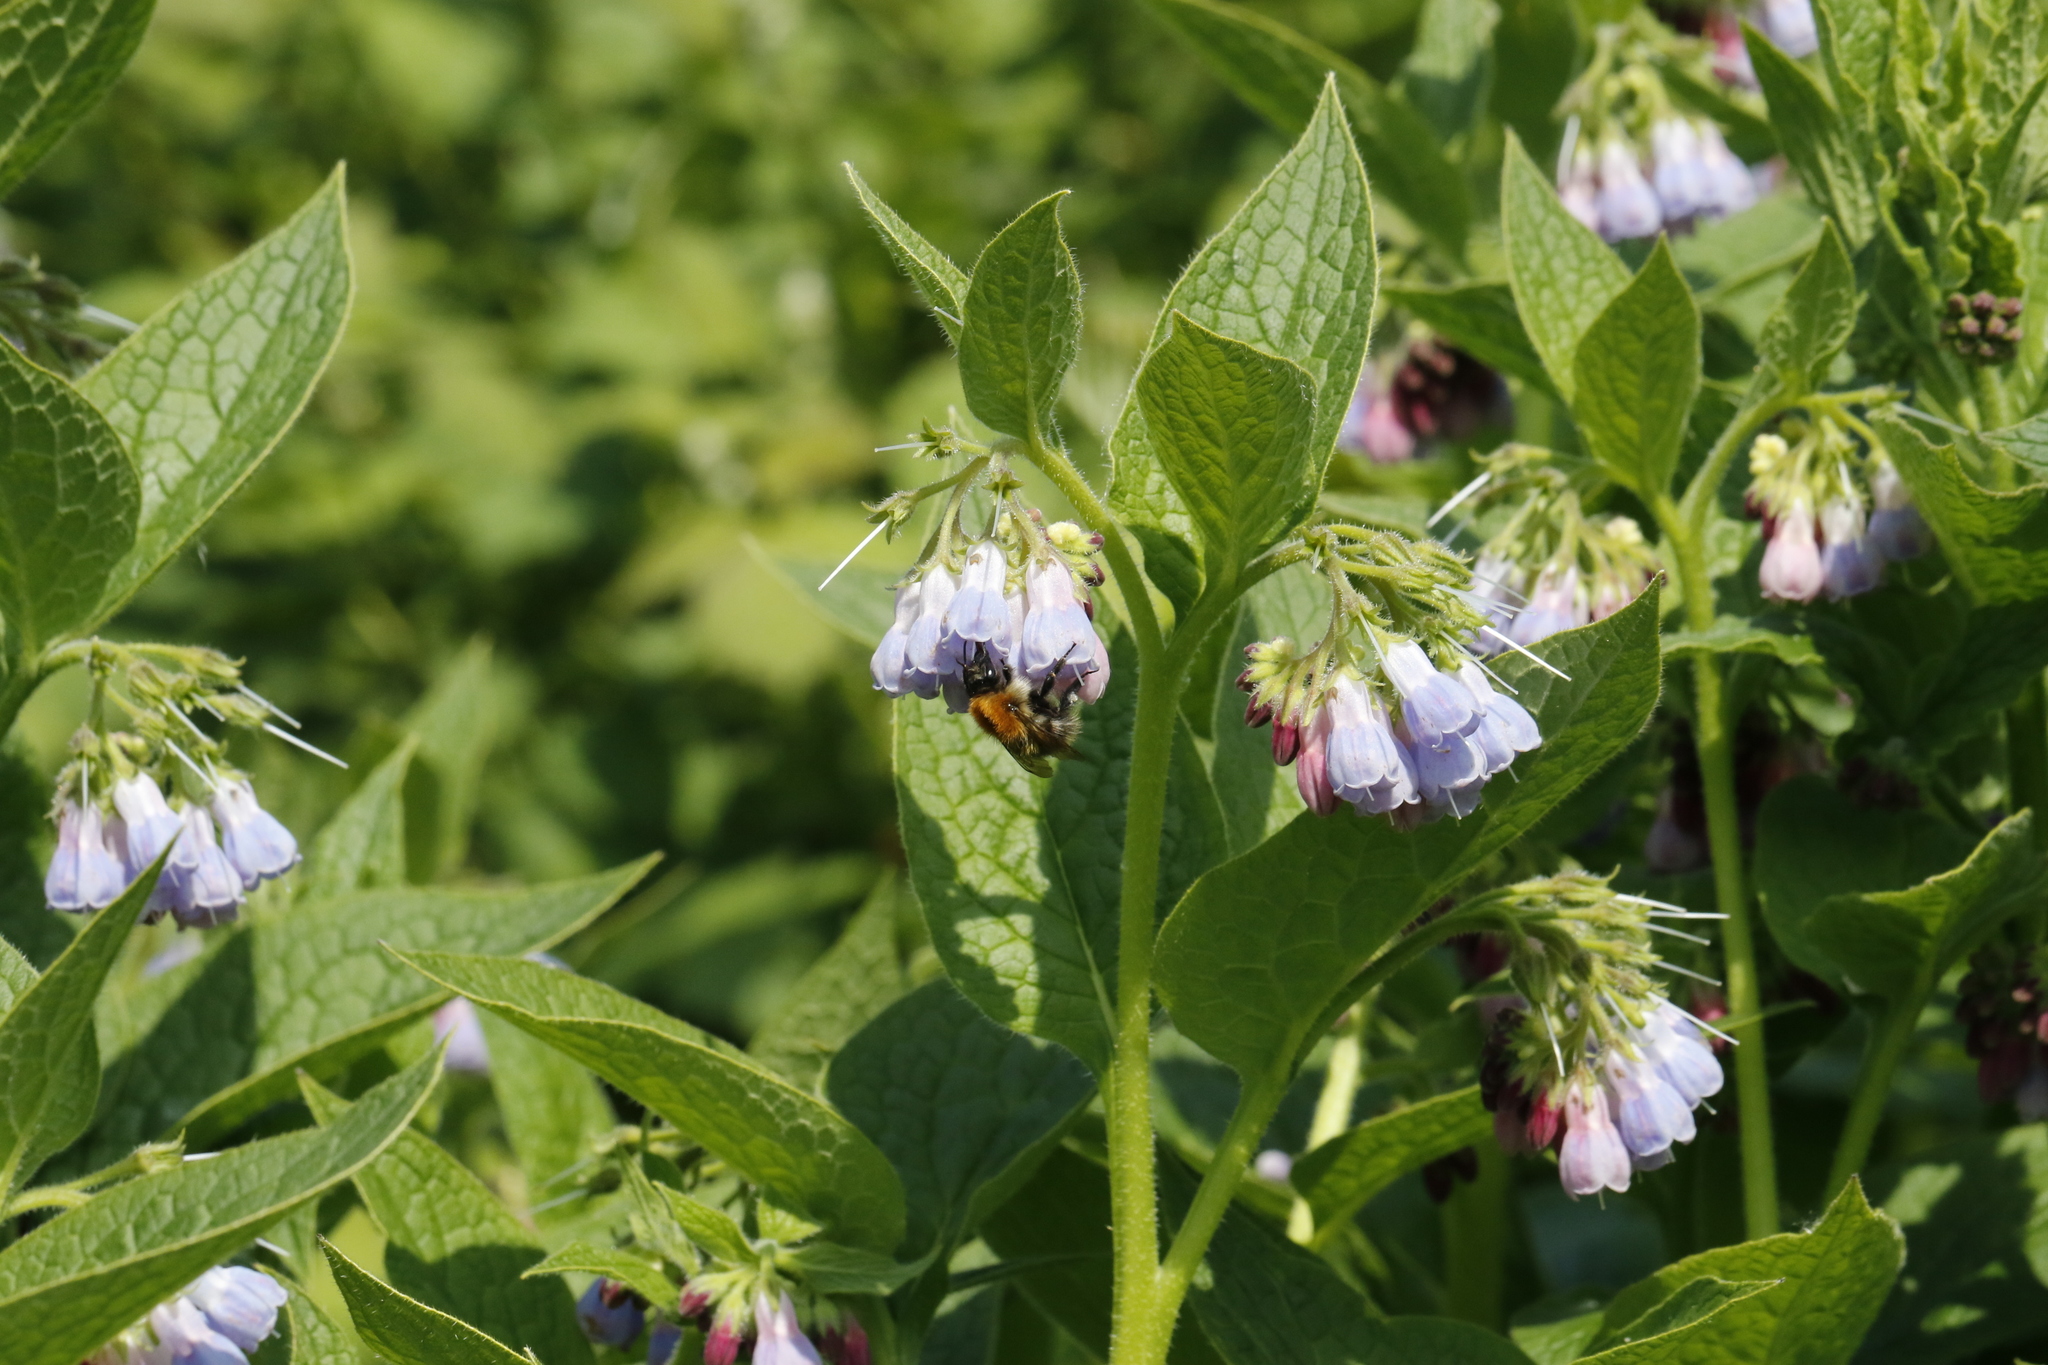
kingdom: Plantae
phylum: Tracheophyta
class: Magnoliopsida
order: Boraginales
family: Boraginaceae
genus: Symphytum
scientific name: Symphytum uplandicum
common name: Russian comfrey
